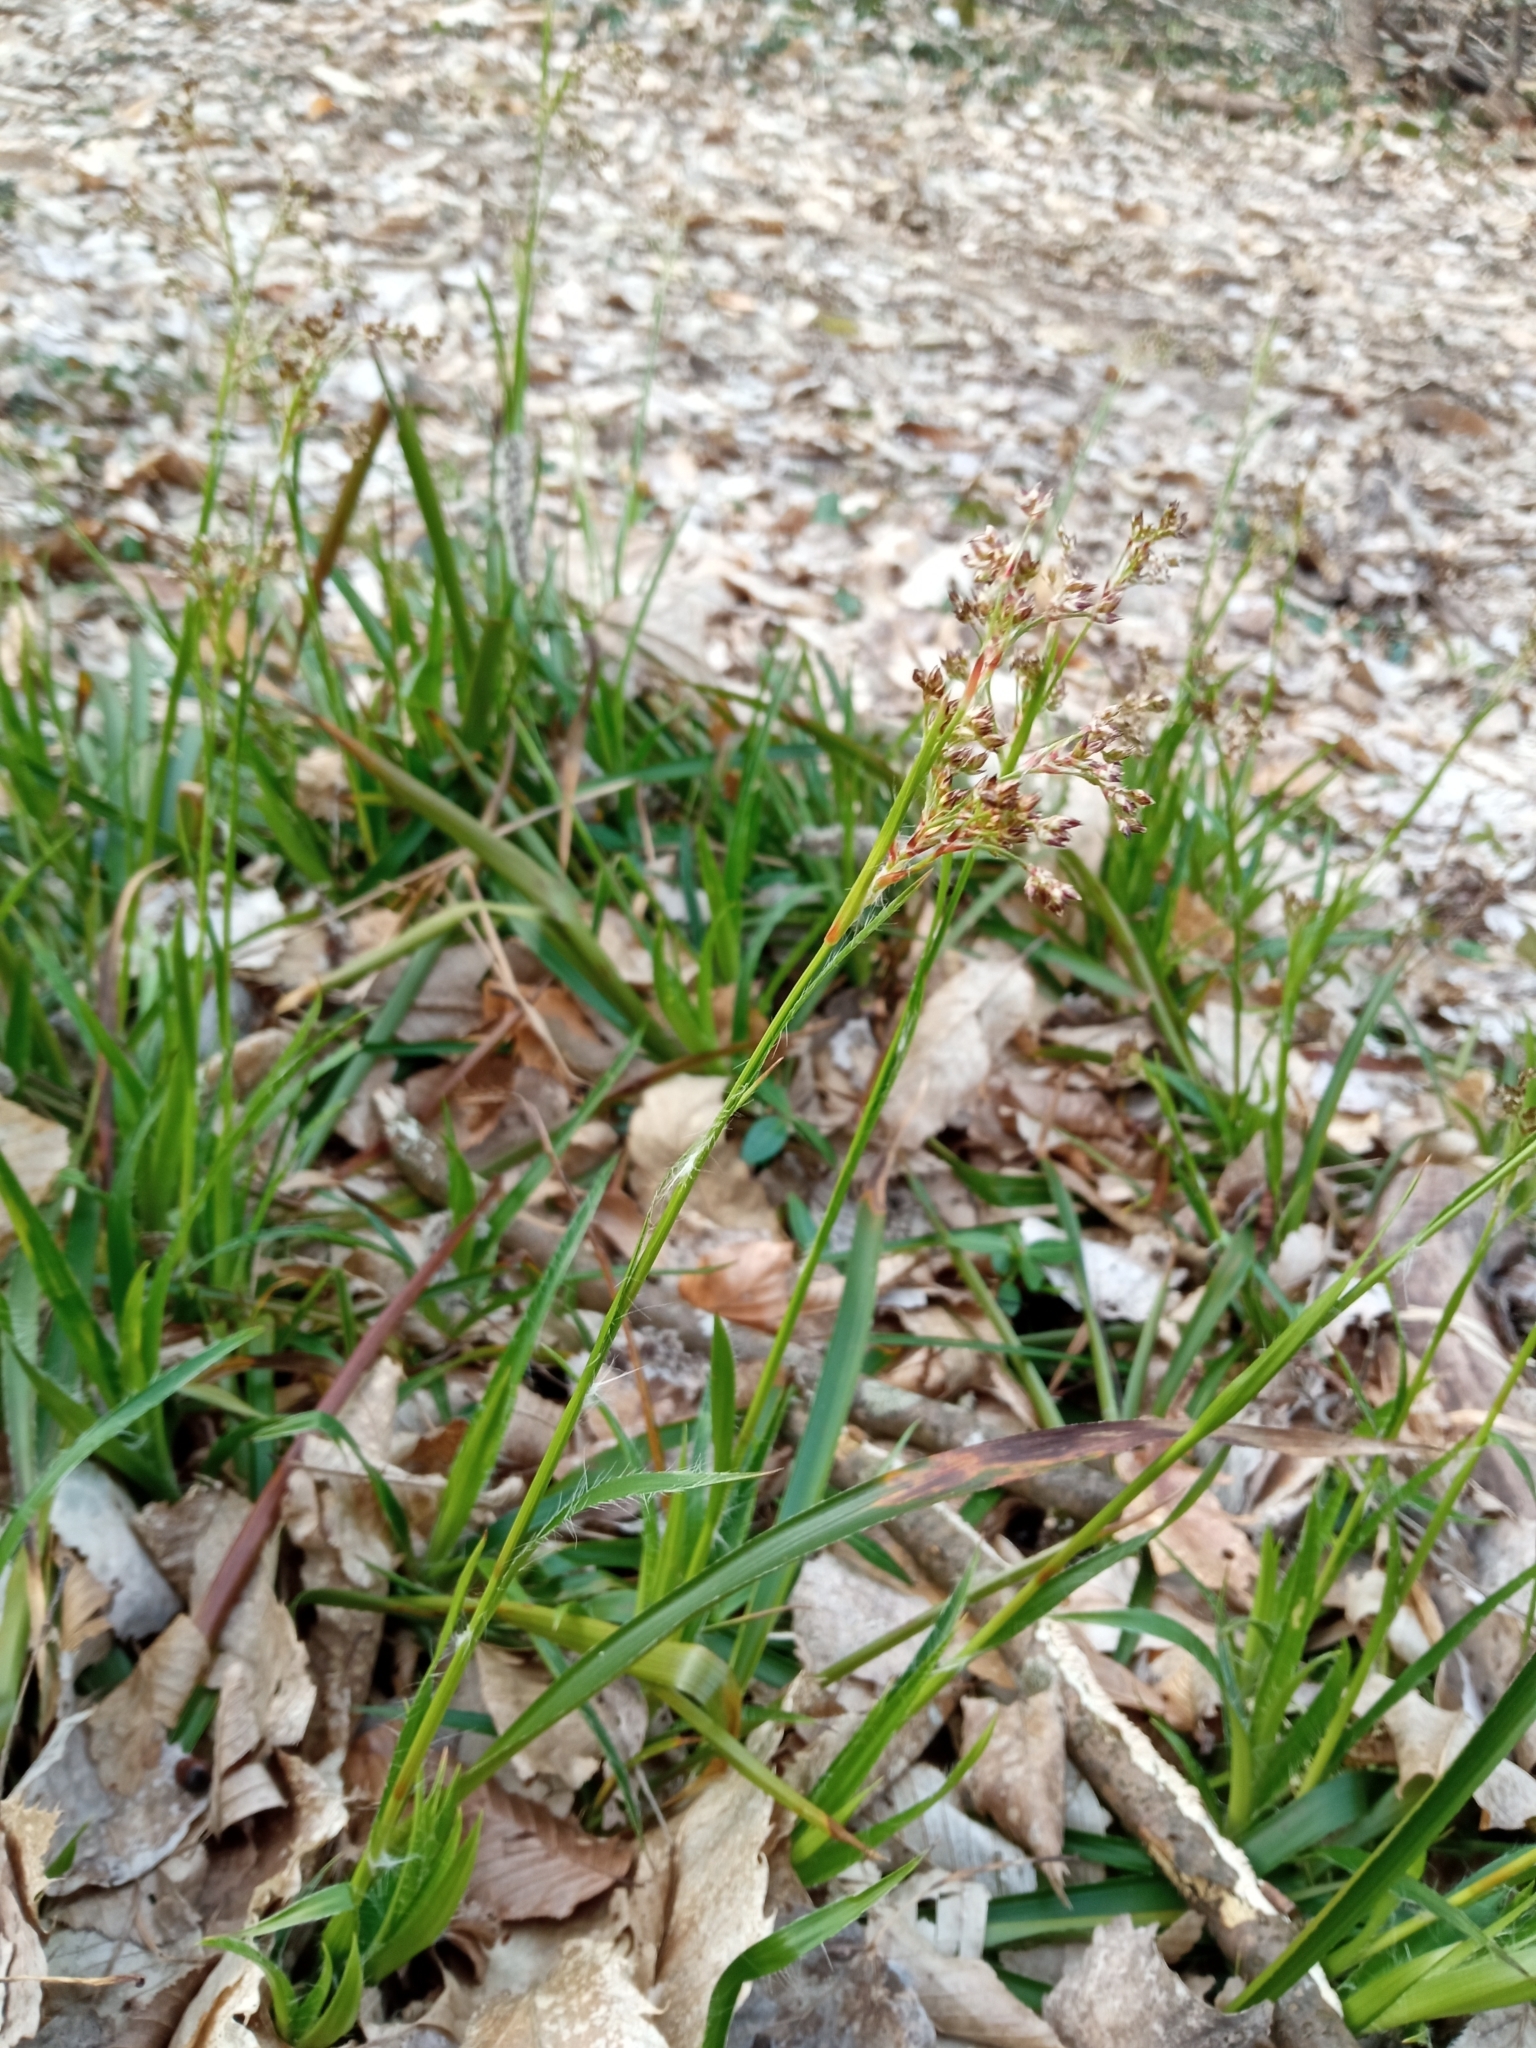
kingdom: Plantae
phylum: Tracheophyta
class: Liliopsida
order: Poales
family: Juncaceae
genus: Luzula
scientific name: Luzula sylvatica
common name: Great wood-rush
